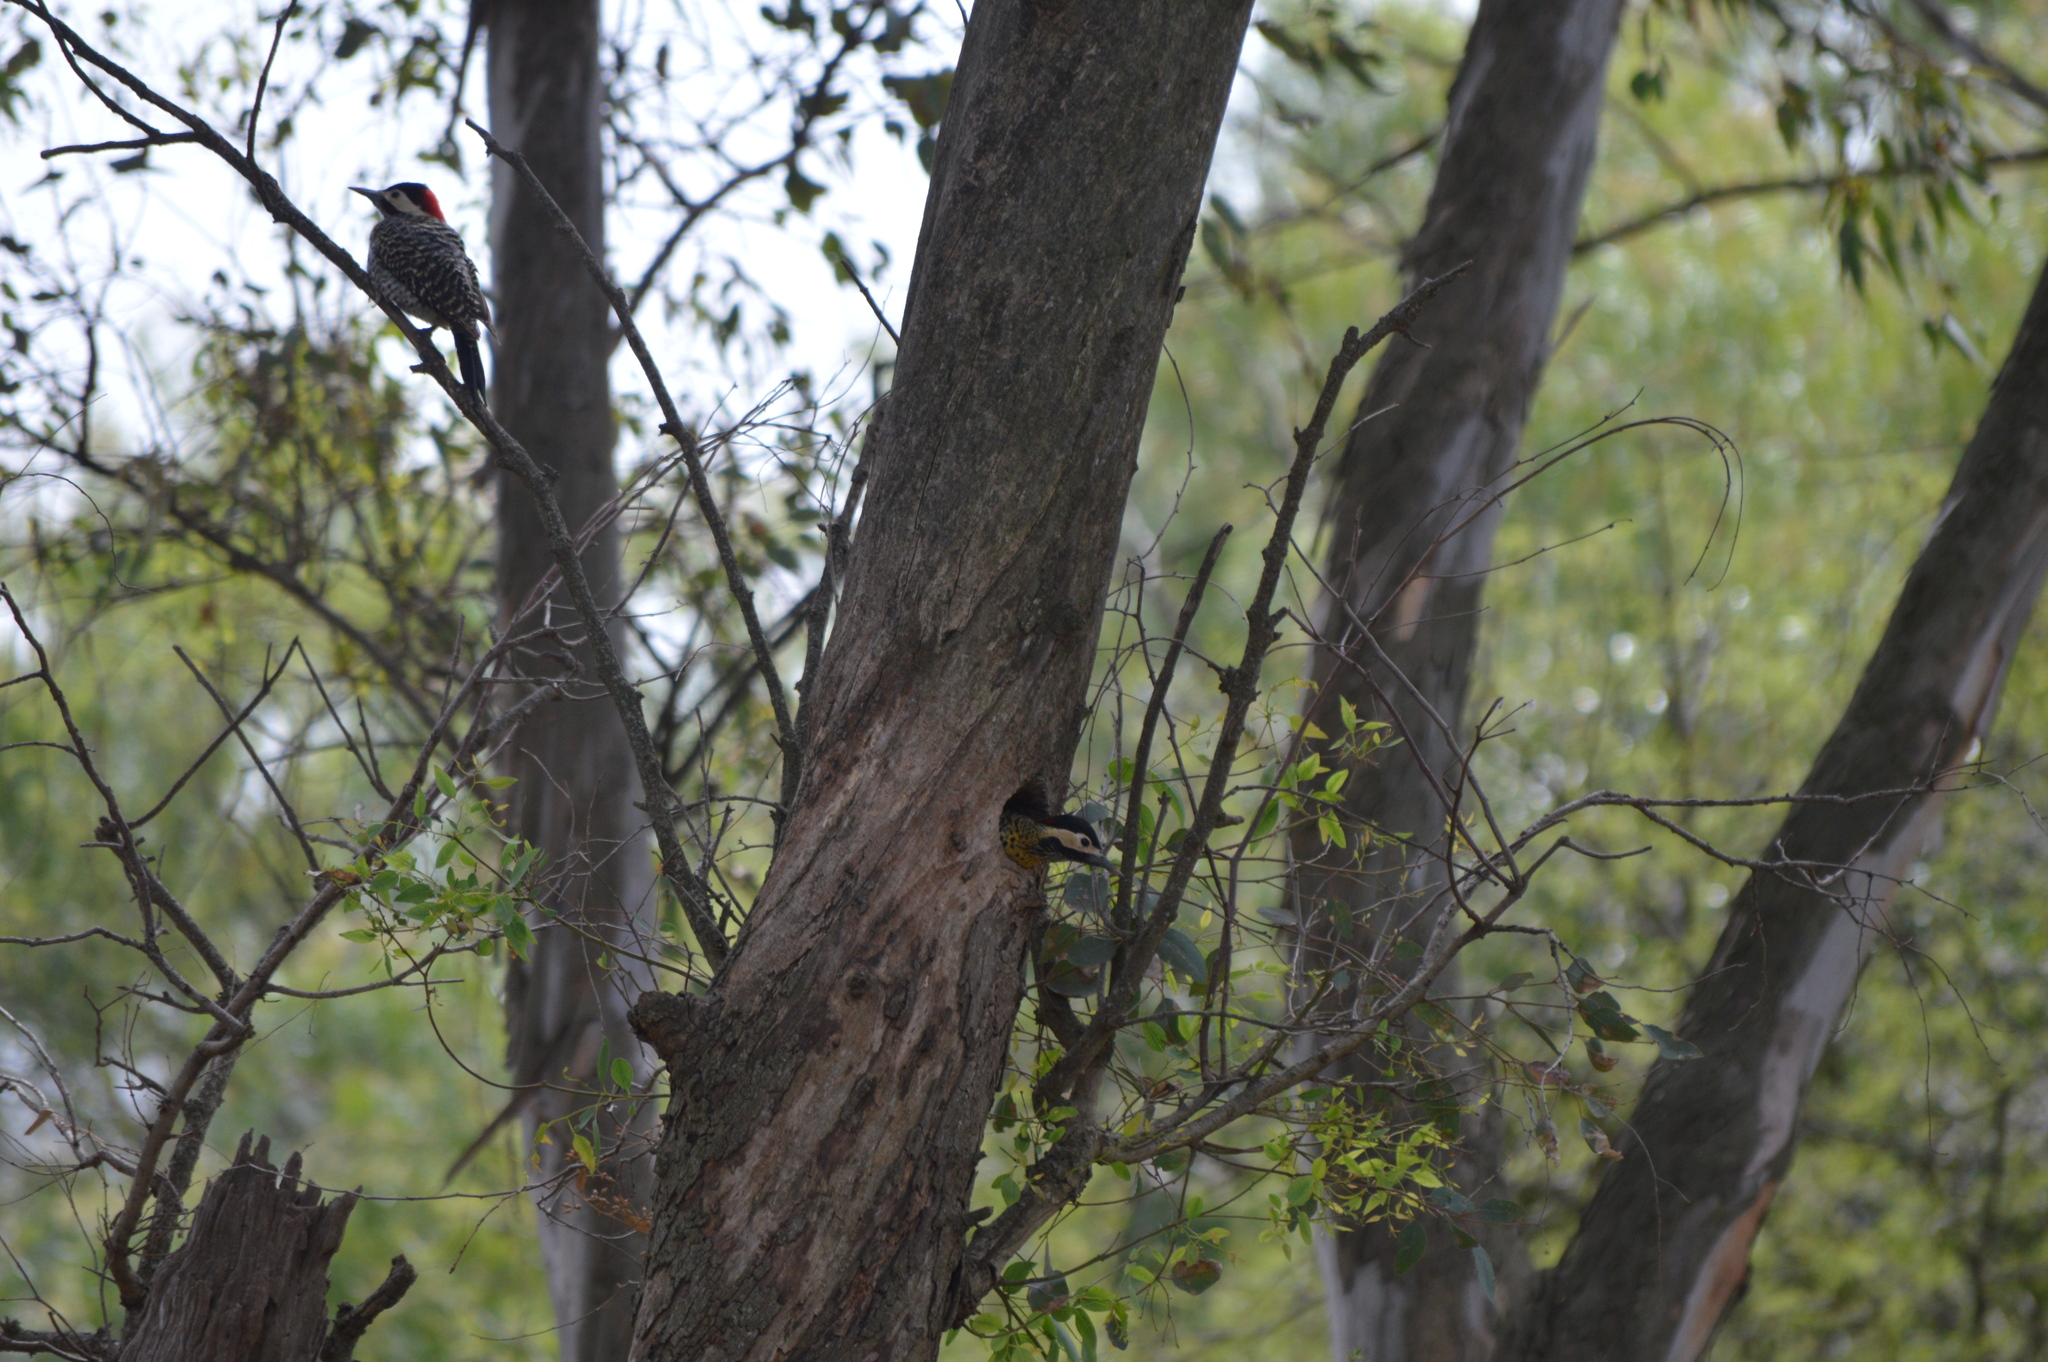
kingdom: Animalia
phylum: Chordata
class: Aves
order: Piciformes
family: Picidae
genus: Colaptes
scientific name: Colaptes melanochloros
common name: Green-barred woodpecker
